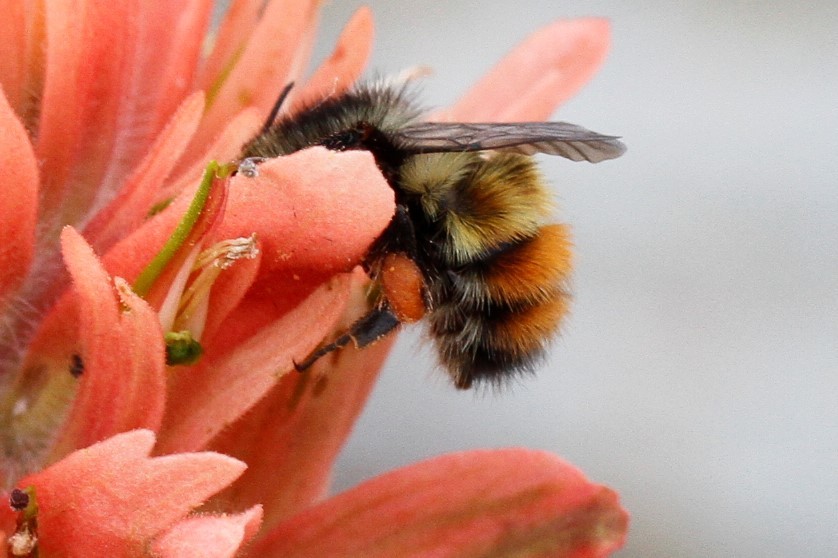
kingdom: Animalia
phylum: Arthropoda
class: Insecta
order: Hymenoptera
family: Apidae
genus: Bombus
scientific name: Bombus flavifrons
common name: Yellow head bumble bee
